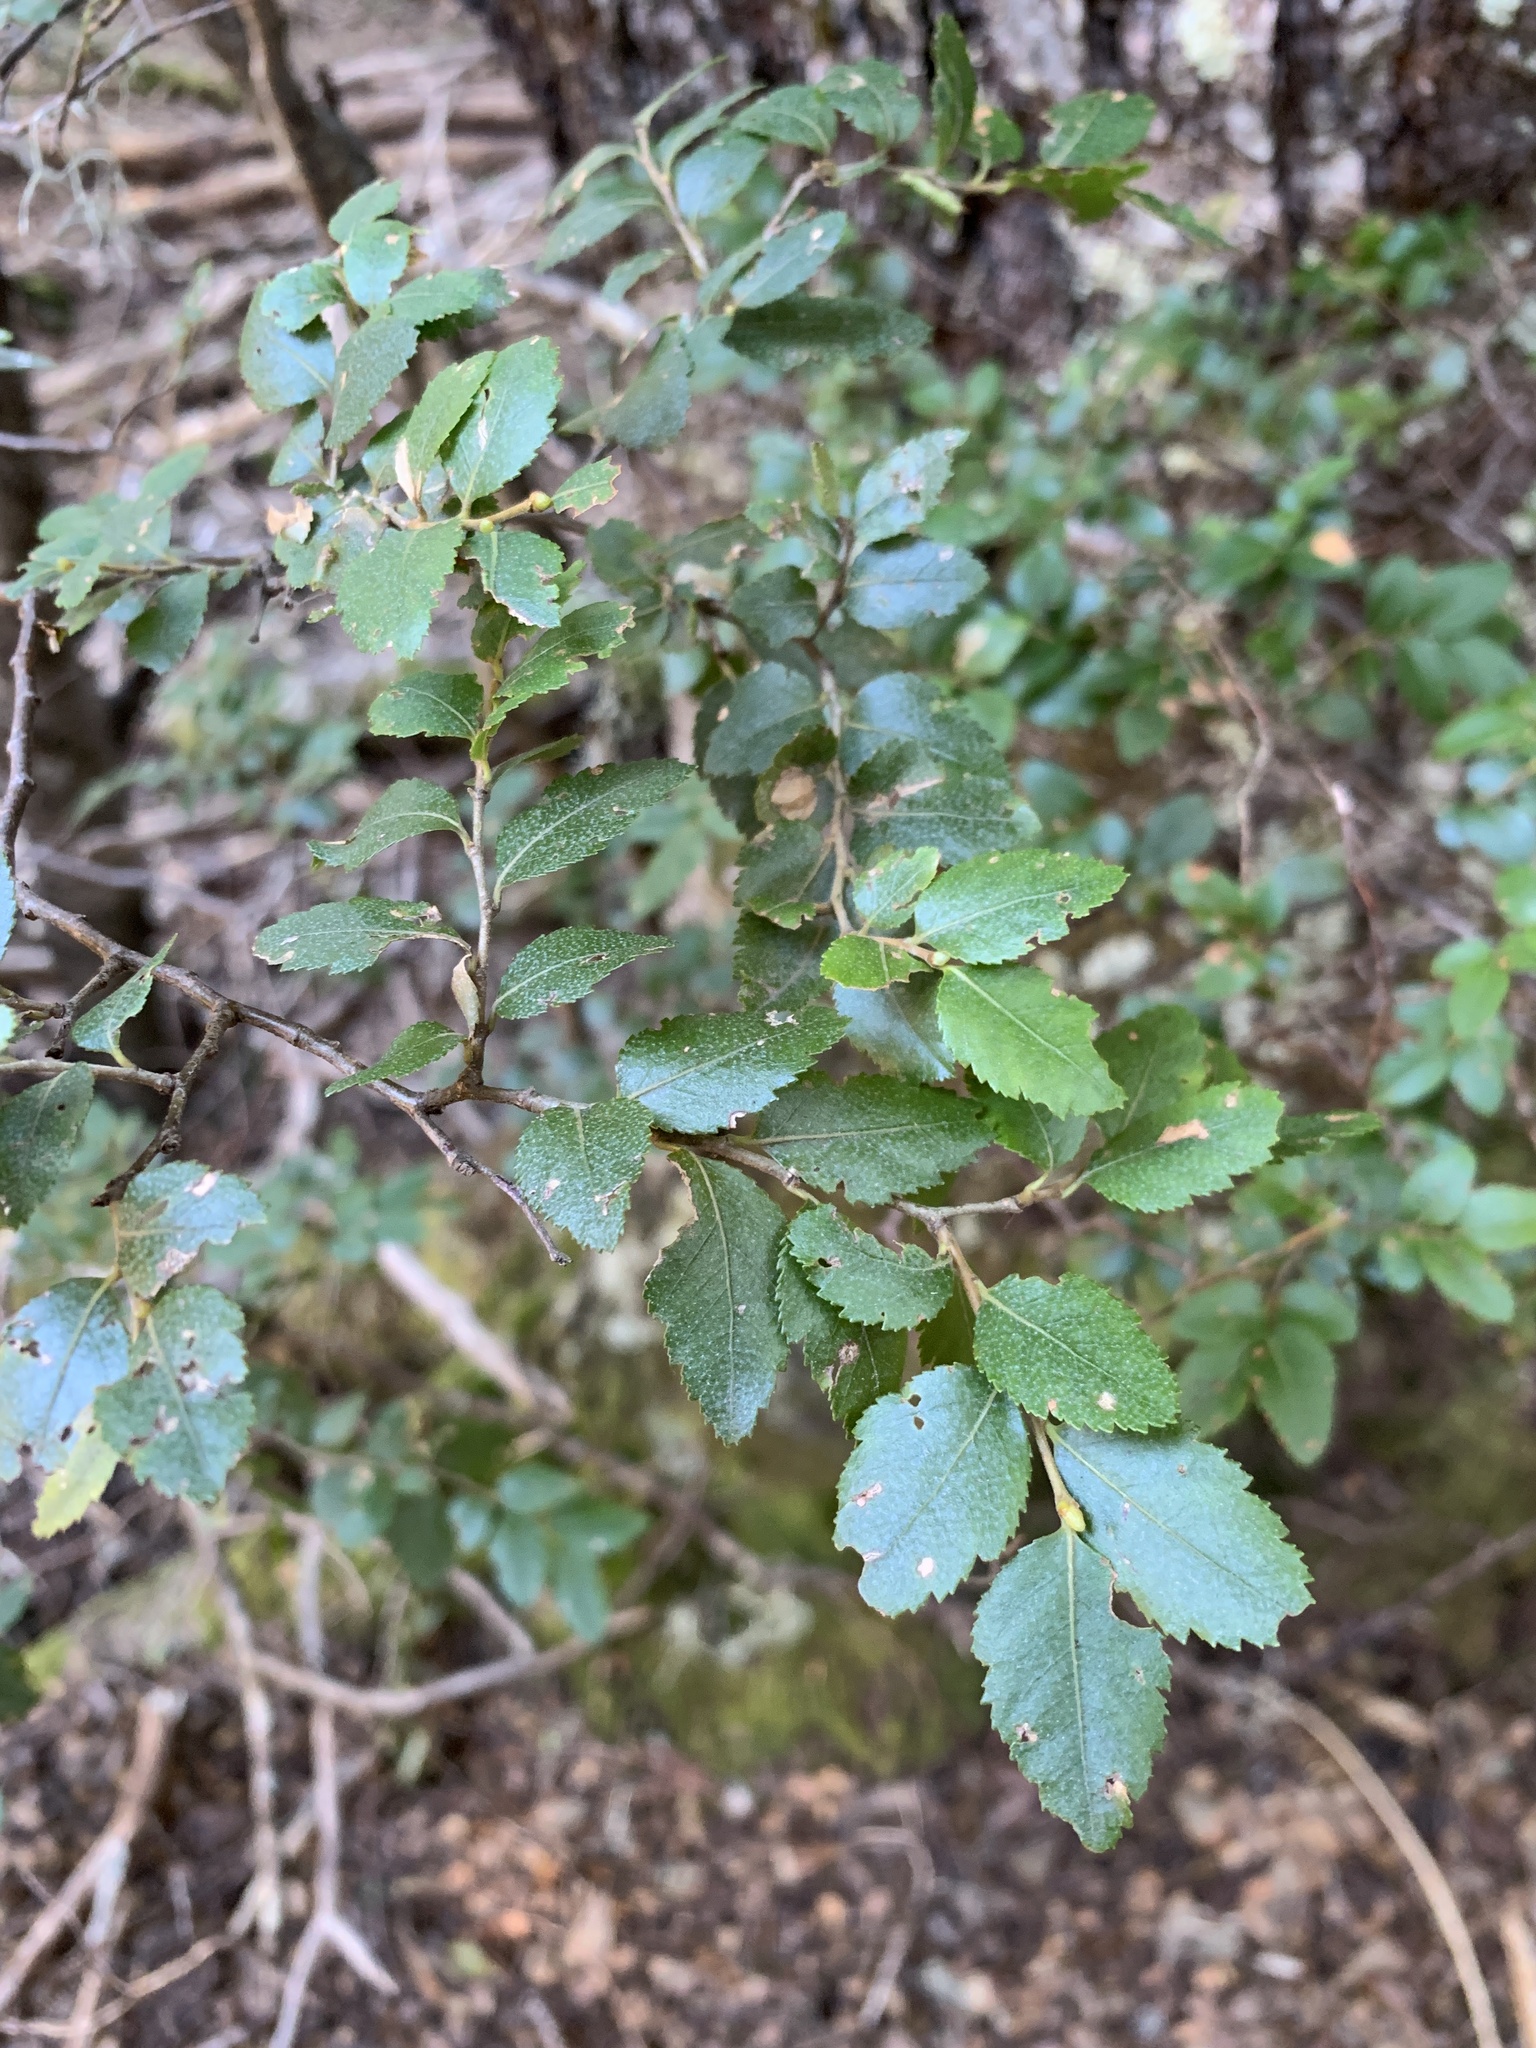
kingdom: Plantae
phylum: Tracheophyta
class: Magnoliopsida
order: Fagales
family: Nothofagaceae
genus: Nothofagus
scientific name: Nothofagus dombeyi
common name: Coigue
